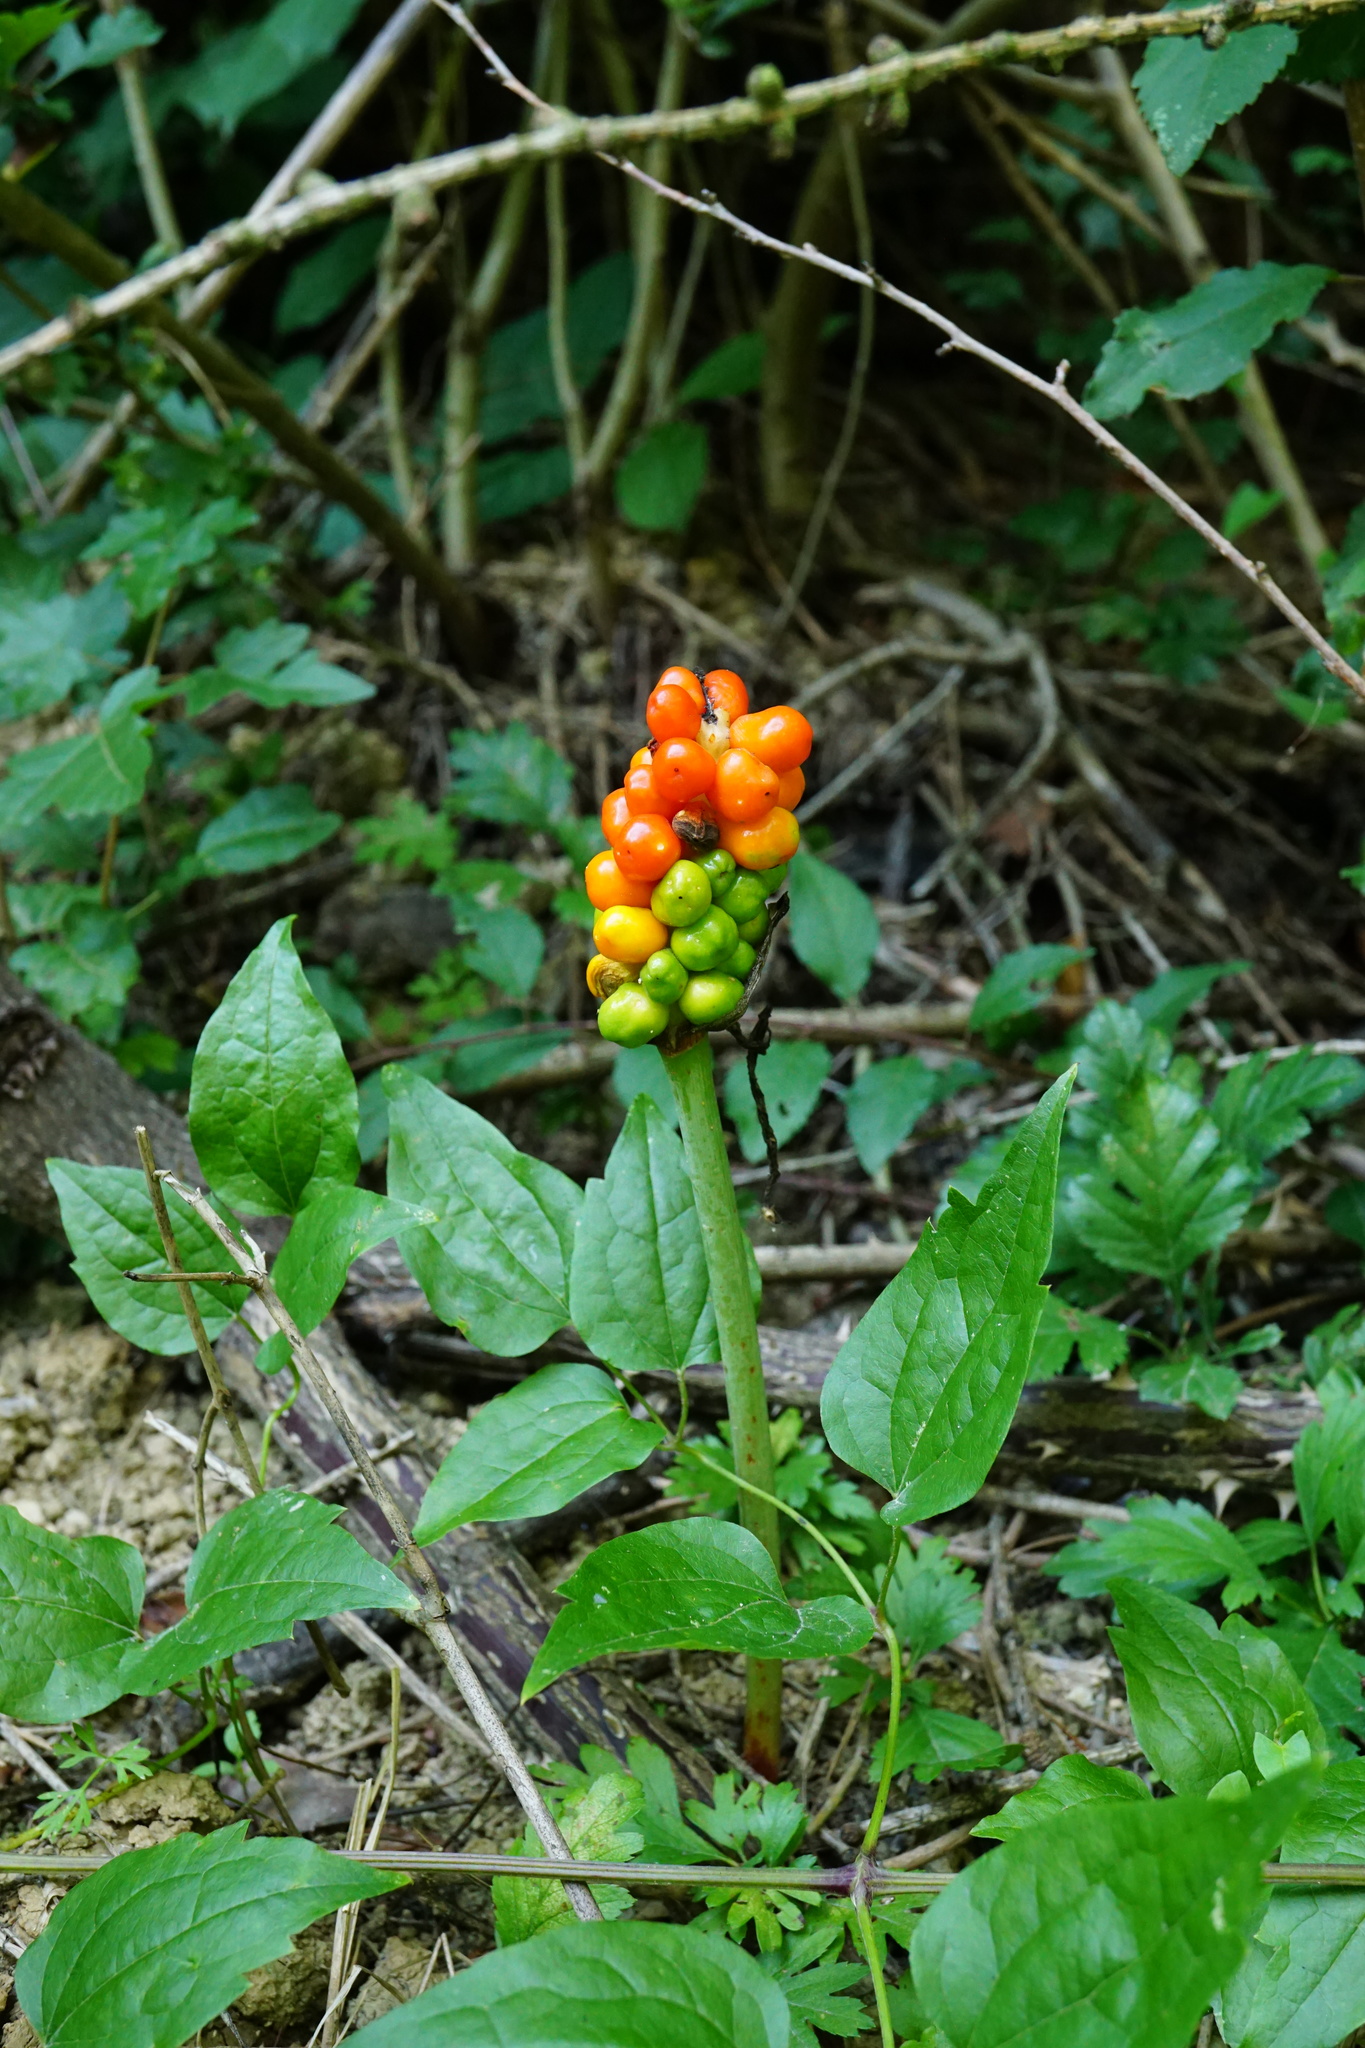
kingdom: Plantae
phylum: Tracheophyta
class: Liliopsida
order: Alismatales
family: Araceae
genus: Arum
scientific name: Arum cylindraceum
